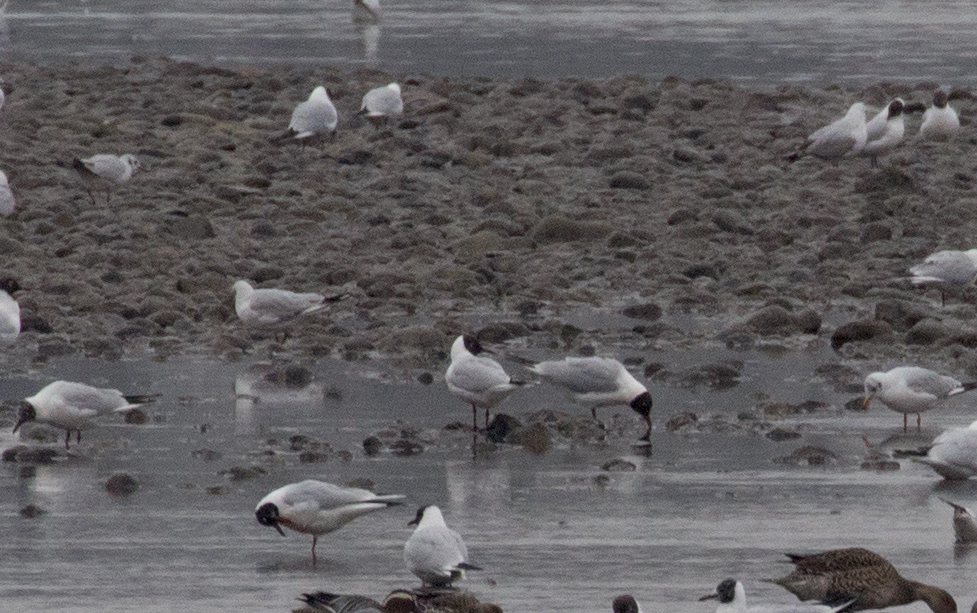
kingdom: Animalia
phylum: Chordata
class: Aves
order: Charadriiformes
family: Laridae
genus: Chroicocephalus
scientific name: Chroicocephalus ridibundus
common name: Black-headed gull
